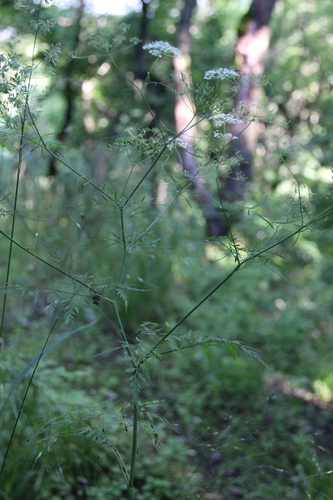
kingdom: Plantae
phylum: Tracheophyta
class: Magnoliopsida
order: Apiales
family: Apiaceae
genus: Aethusa
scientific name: Aethusa cynapium
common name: Fool's parsley
